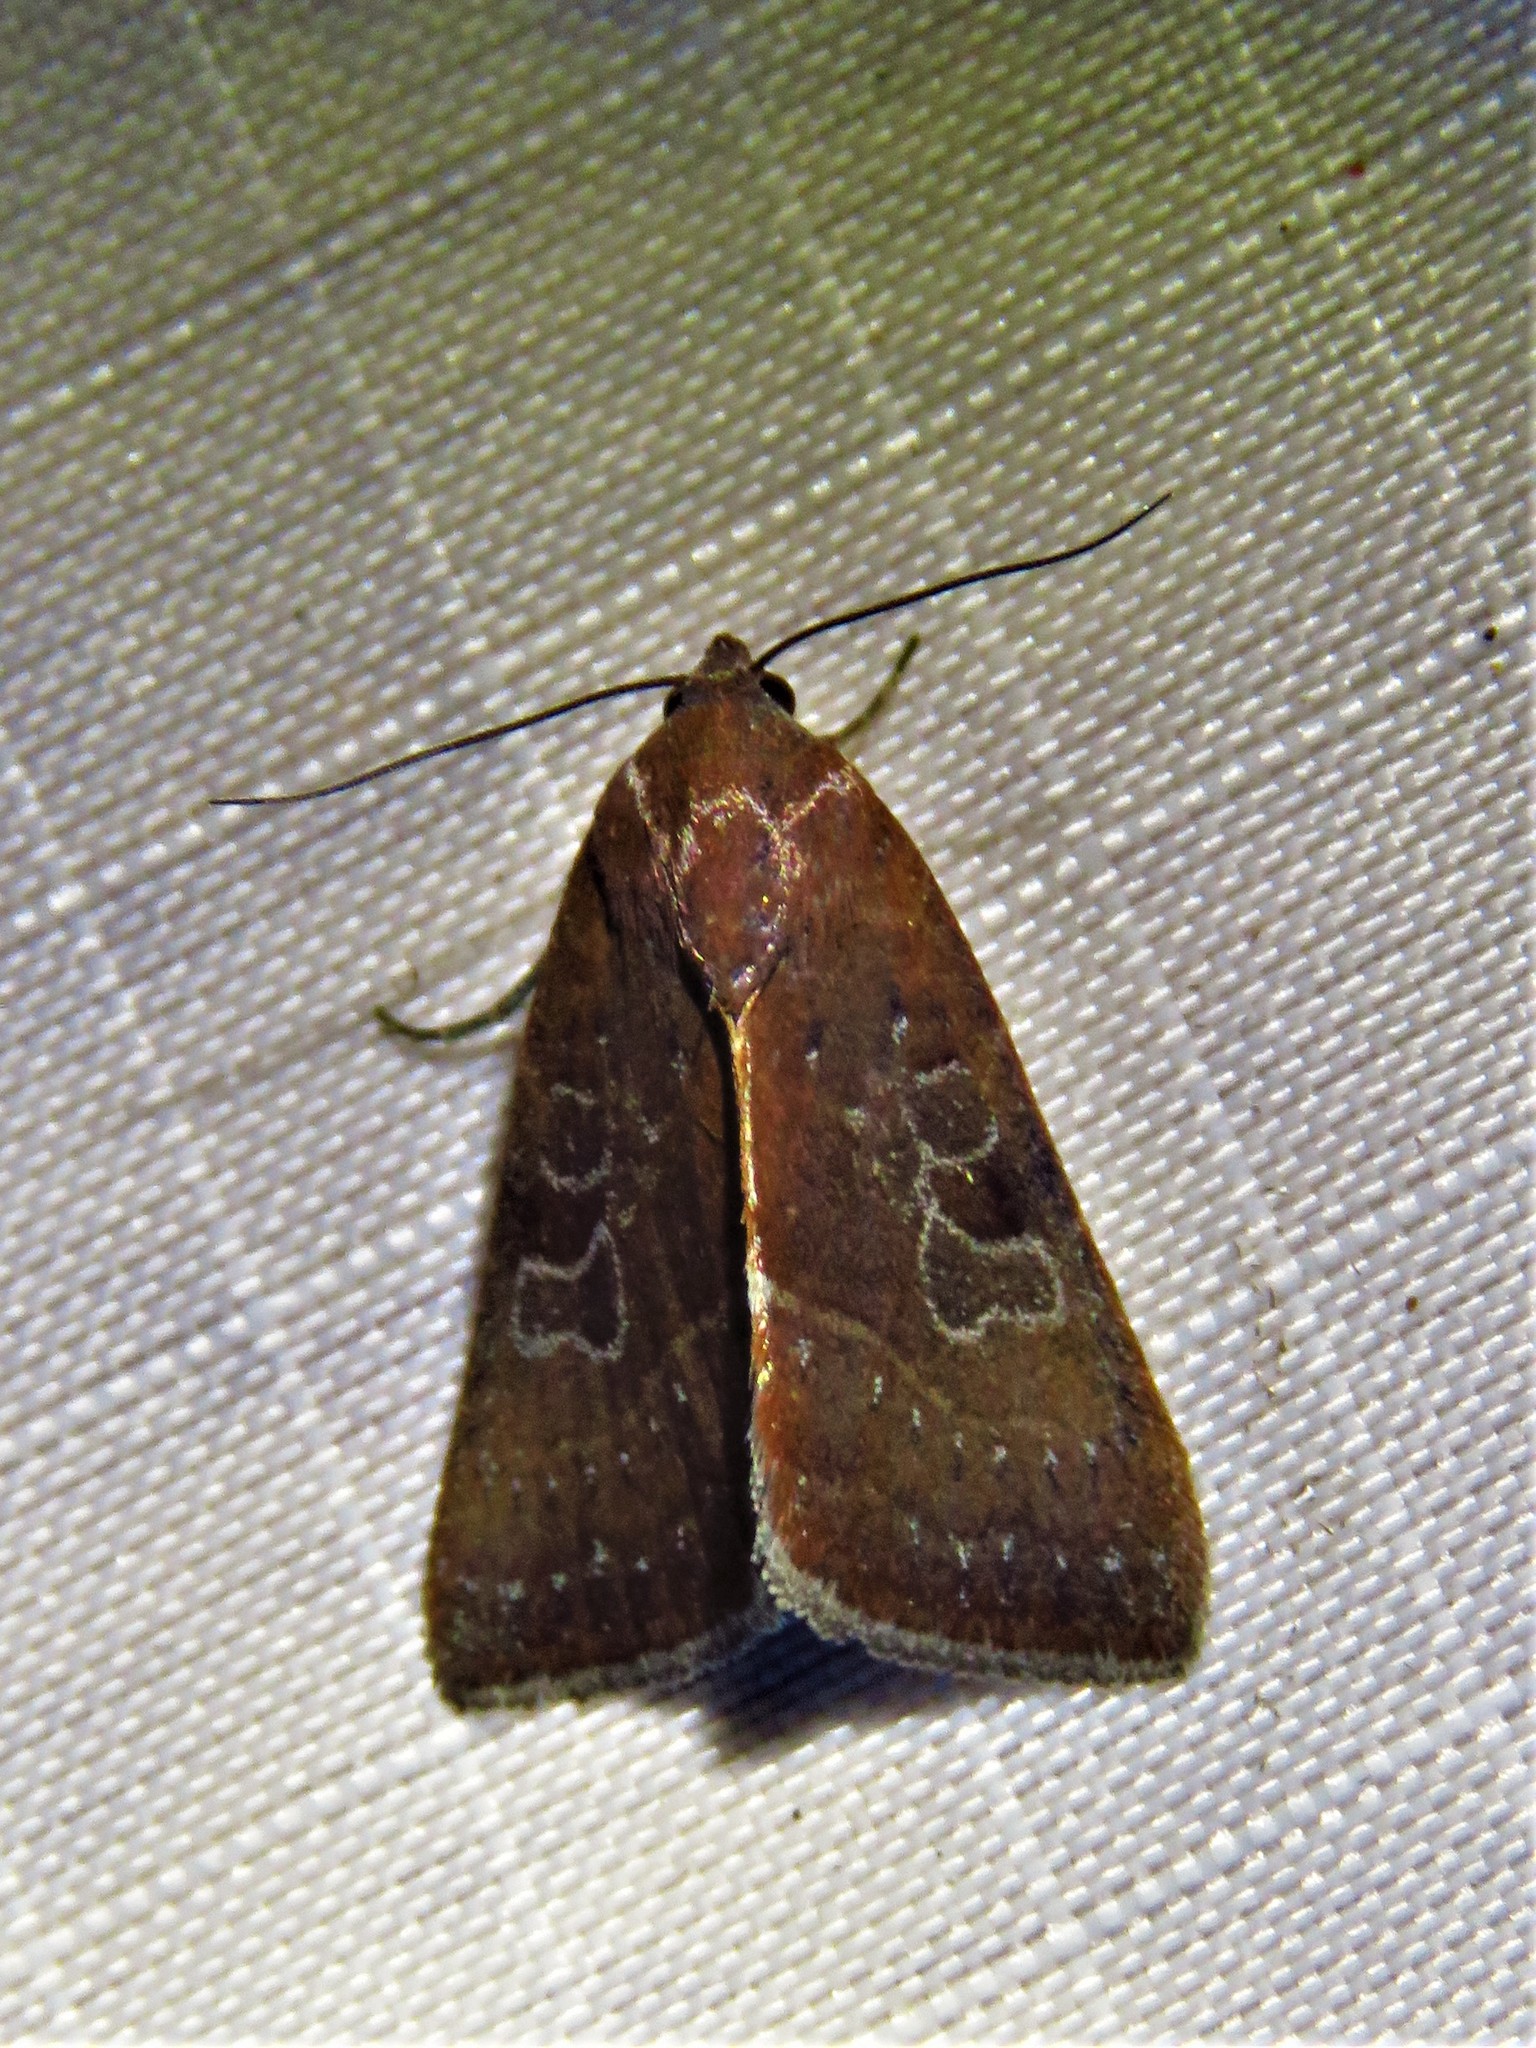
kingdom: Animalia
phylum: Arthropoda
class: Insecta
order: Lepidoptera
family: Noctuidae
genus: Galgula
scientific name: Galgula partita
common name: Wedgeling
